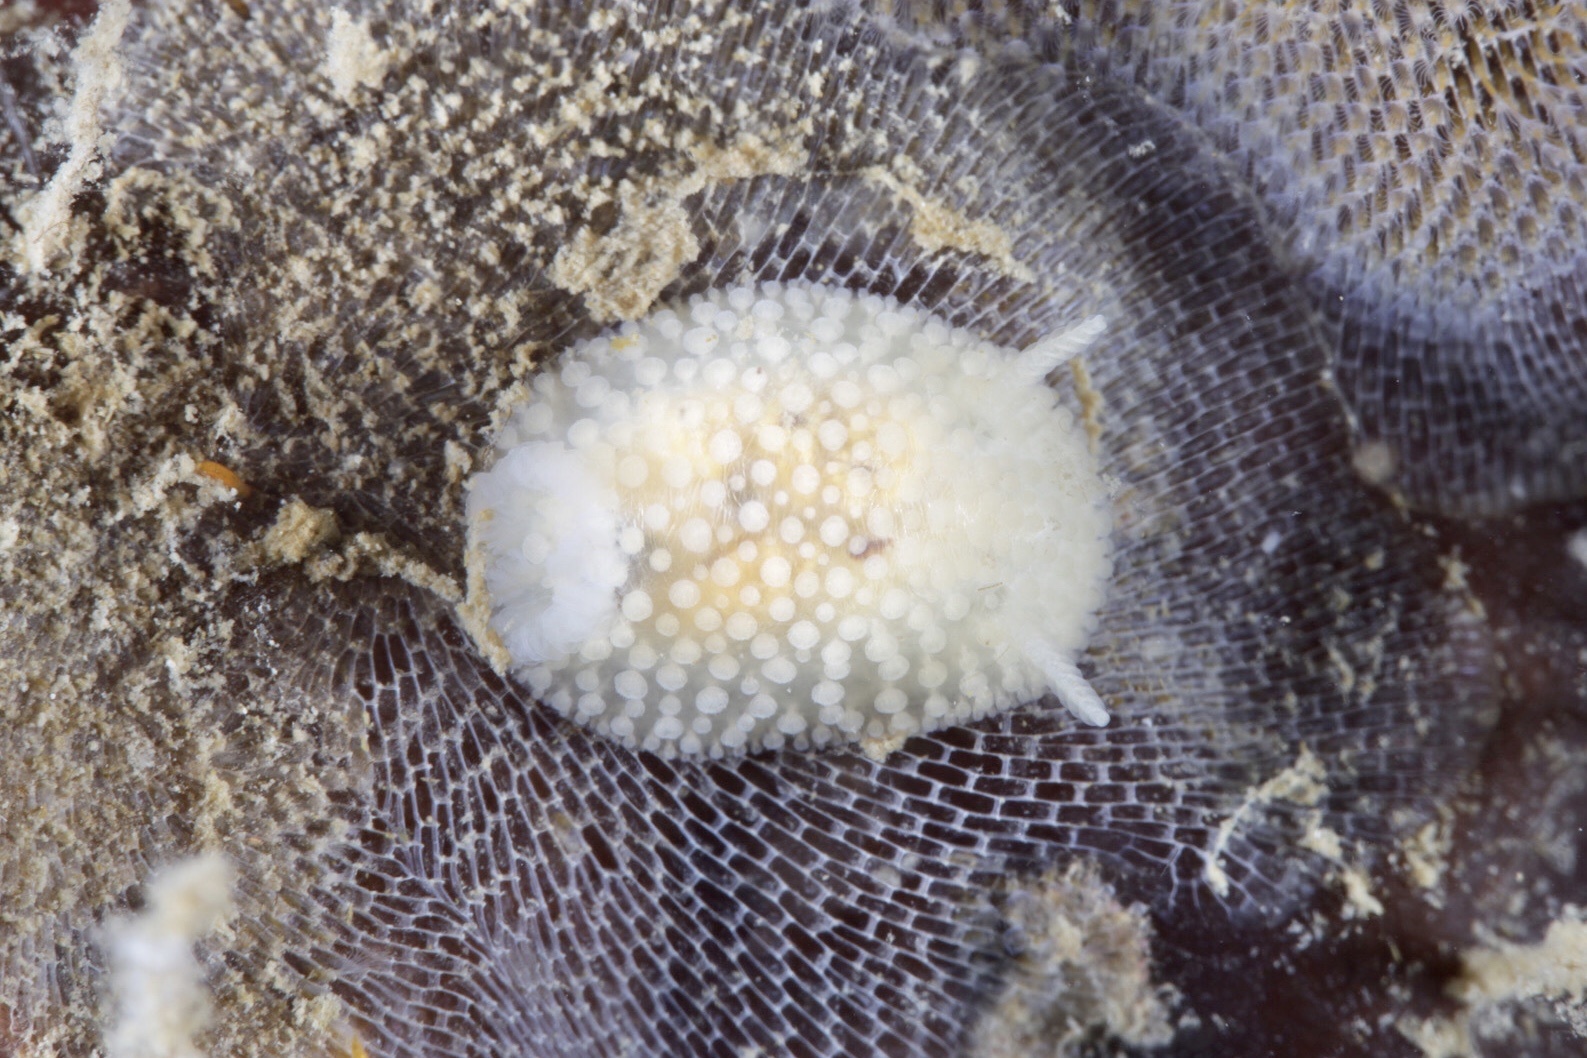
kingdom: Animalia
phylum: Mollusca
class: Gastropoda
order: Nudibranchia
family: Onchidorididae
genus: Onchidoris
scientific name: Onchidoris muricata
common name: Rough doris
